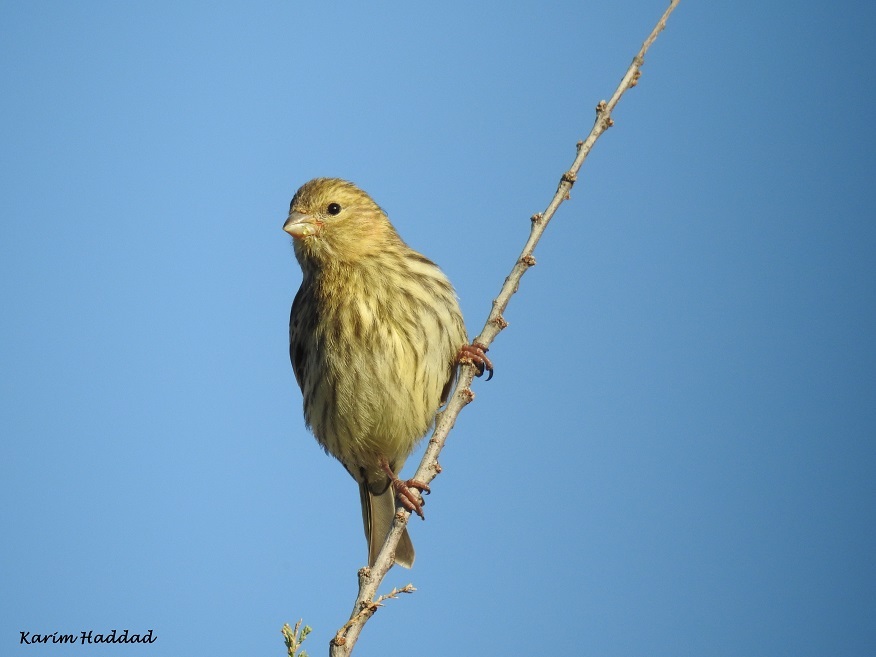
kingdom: Animalia
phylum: Chordata
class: Aves
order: Passeriformes
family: Fringillidae
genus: Serinus
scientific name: Serinus serinus
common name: European serin
